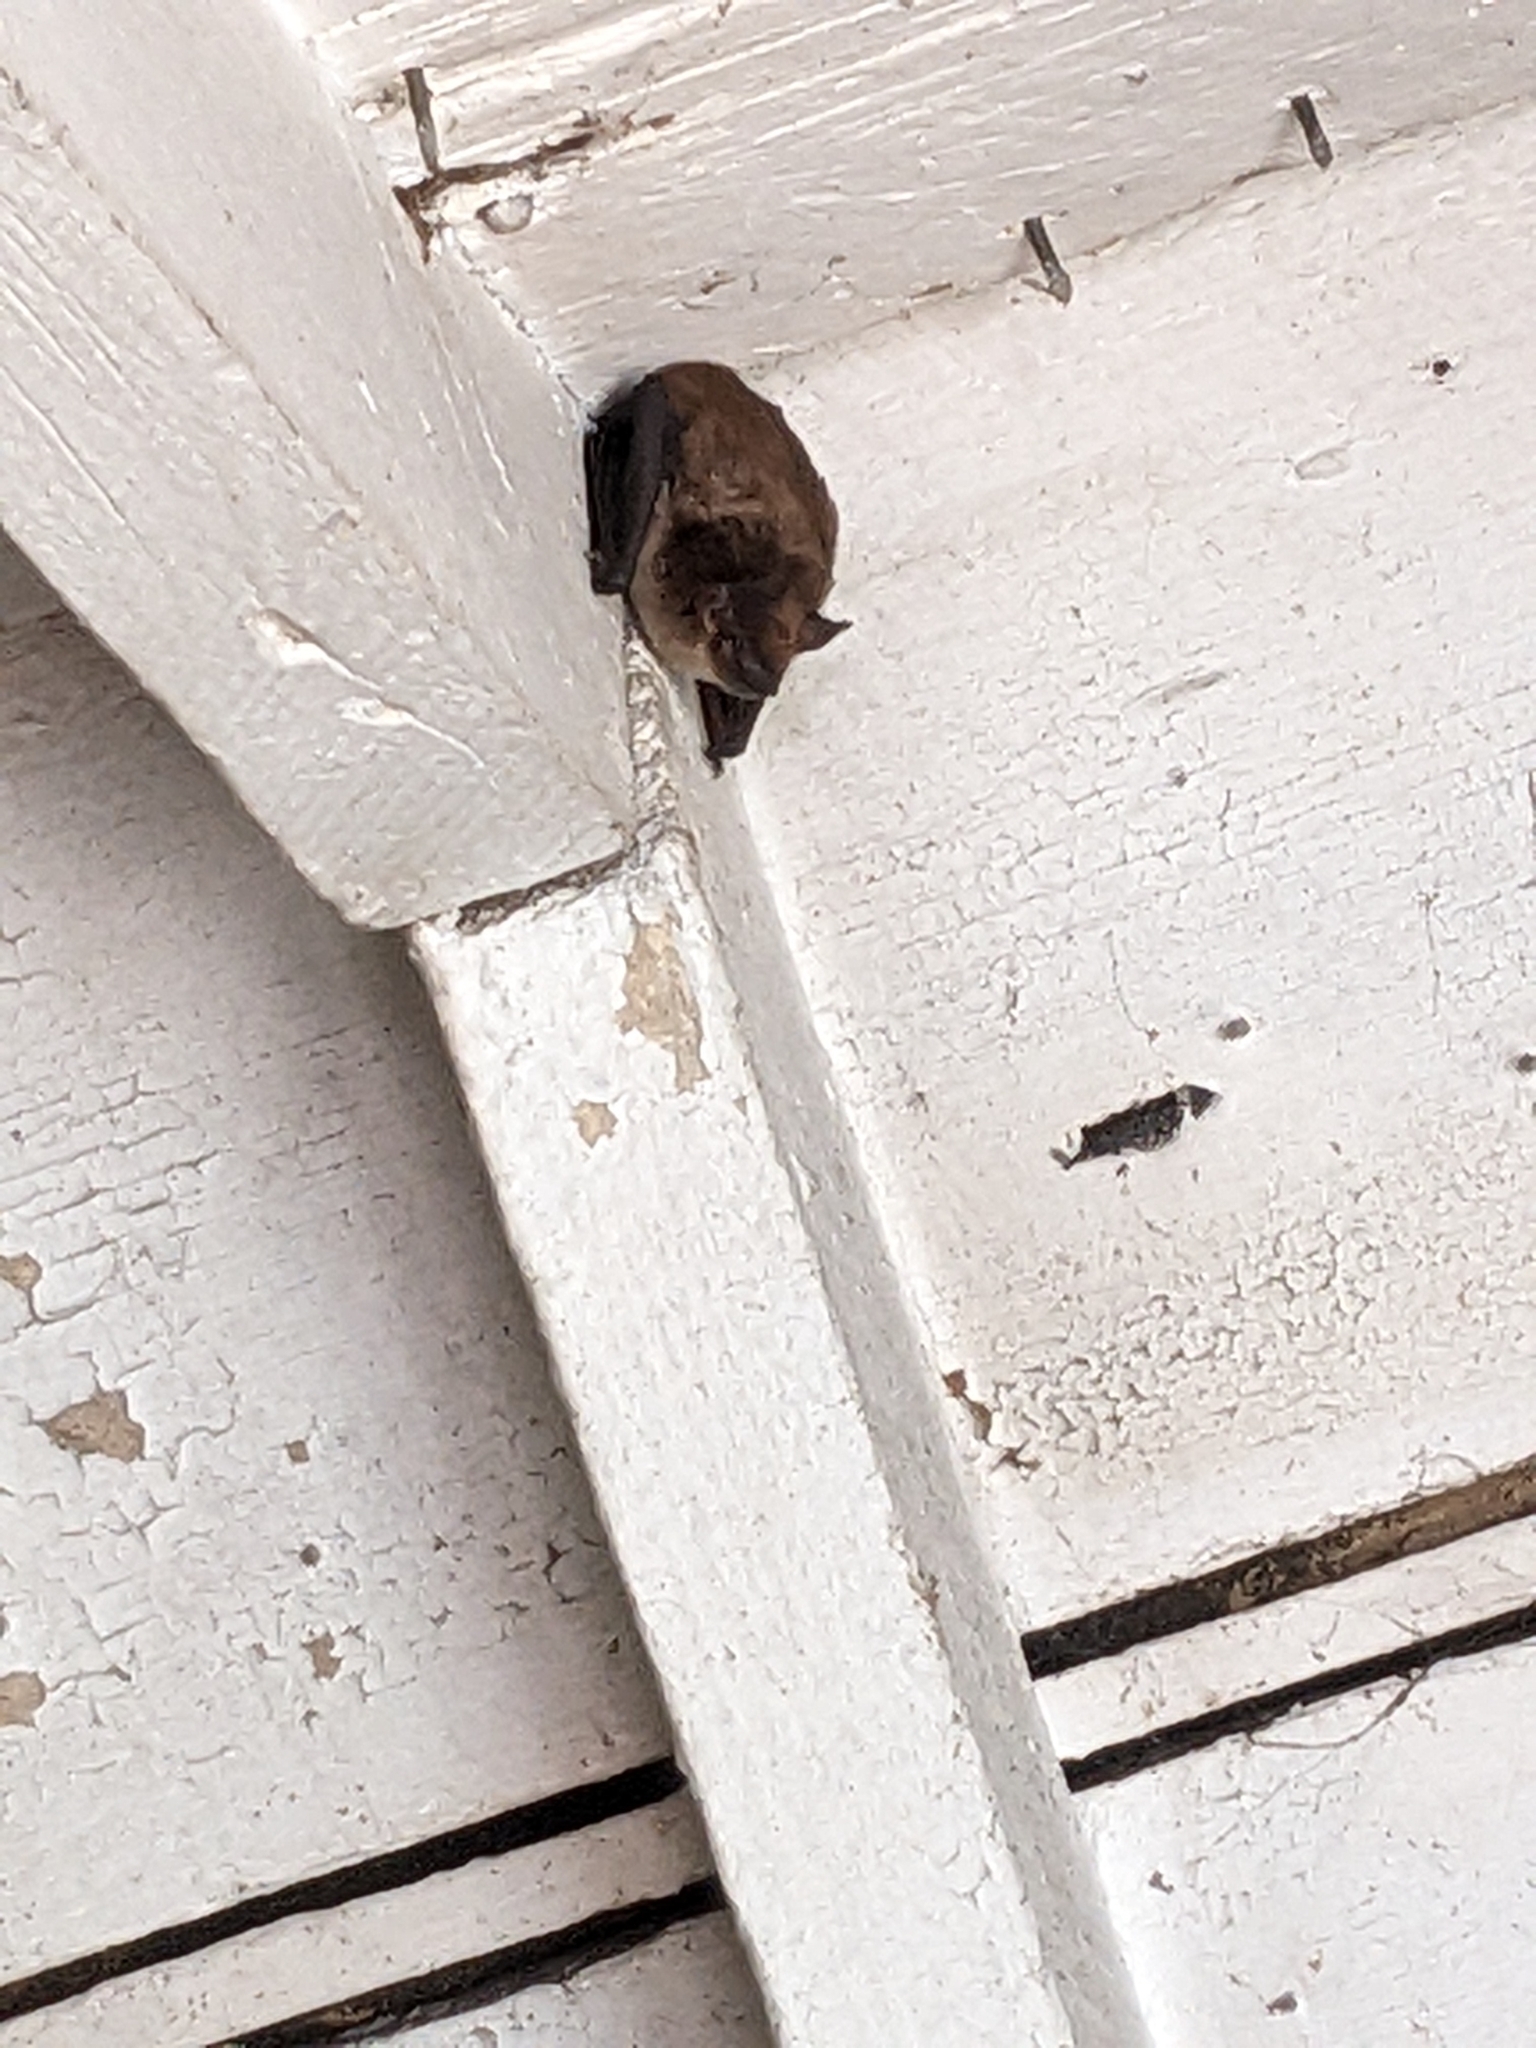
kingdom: Animalia
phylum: Chordata
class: Mammalia
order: Chiroptera
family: Vespertilionidae
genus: Eptesicus
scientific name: Eptesicus fuscus
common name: Big brown bat
